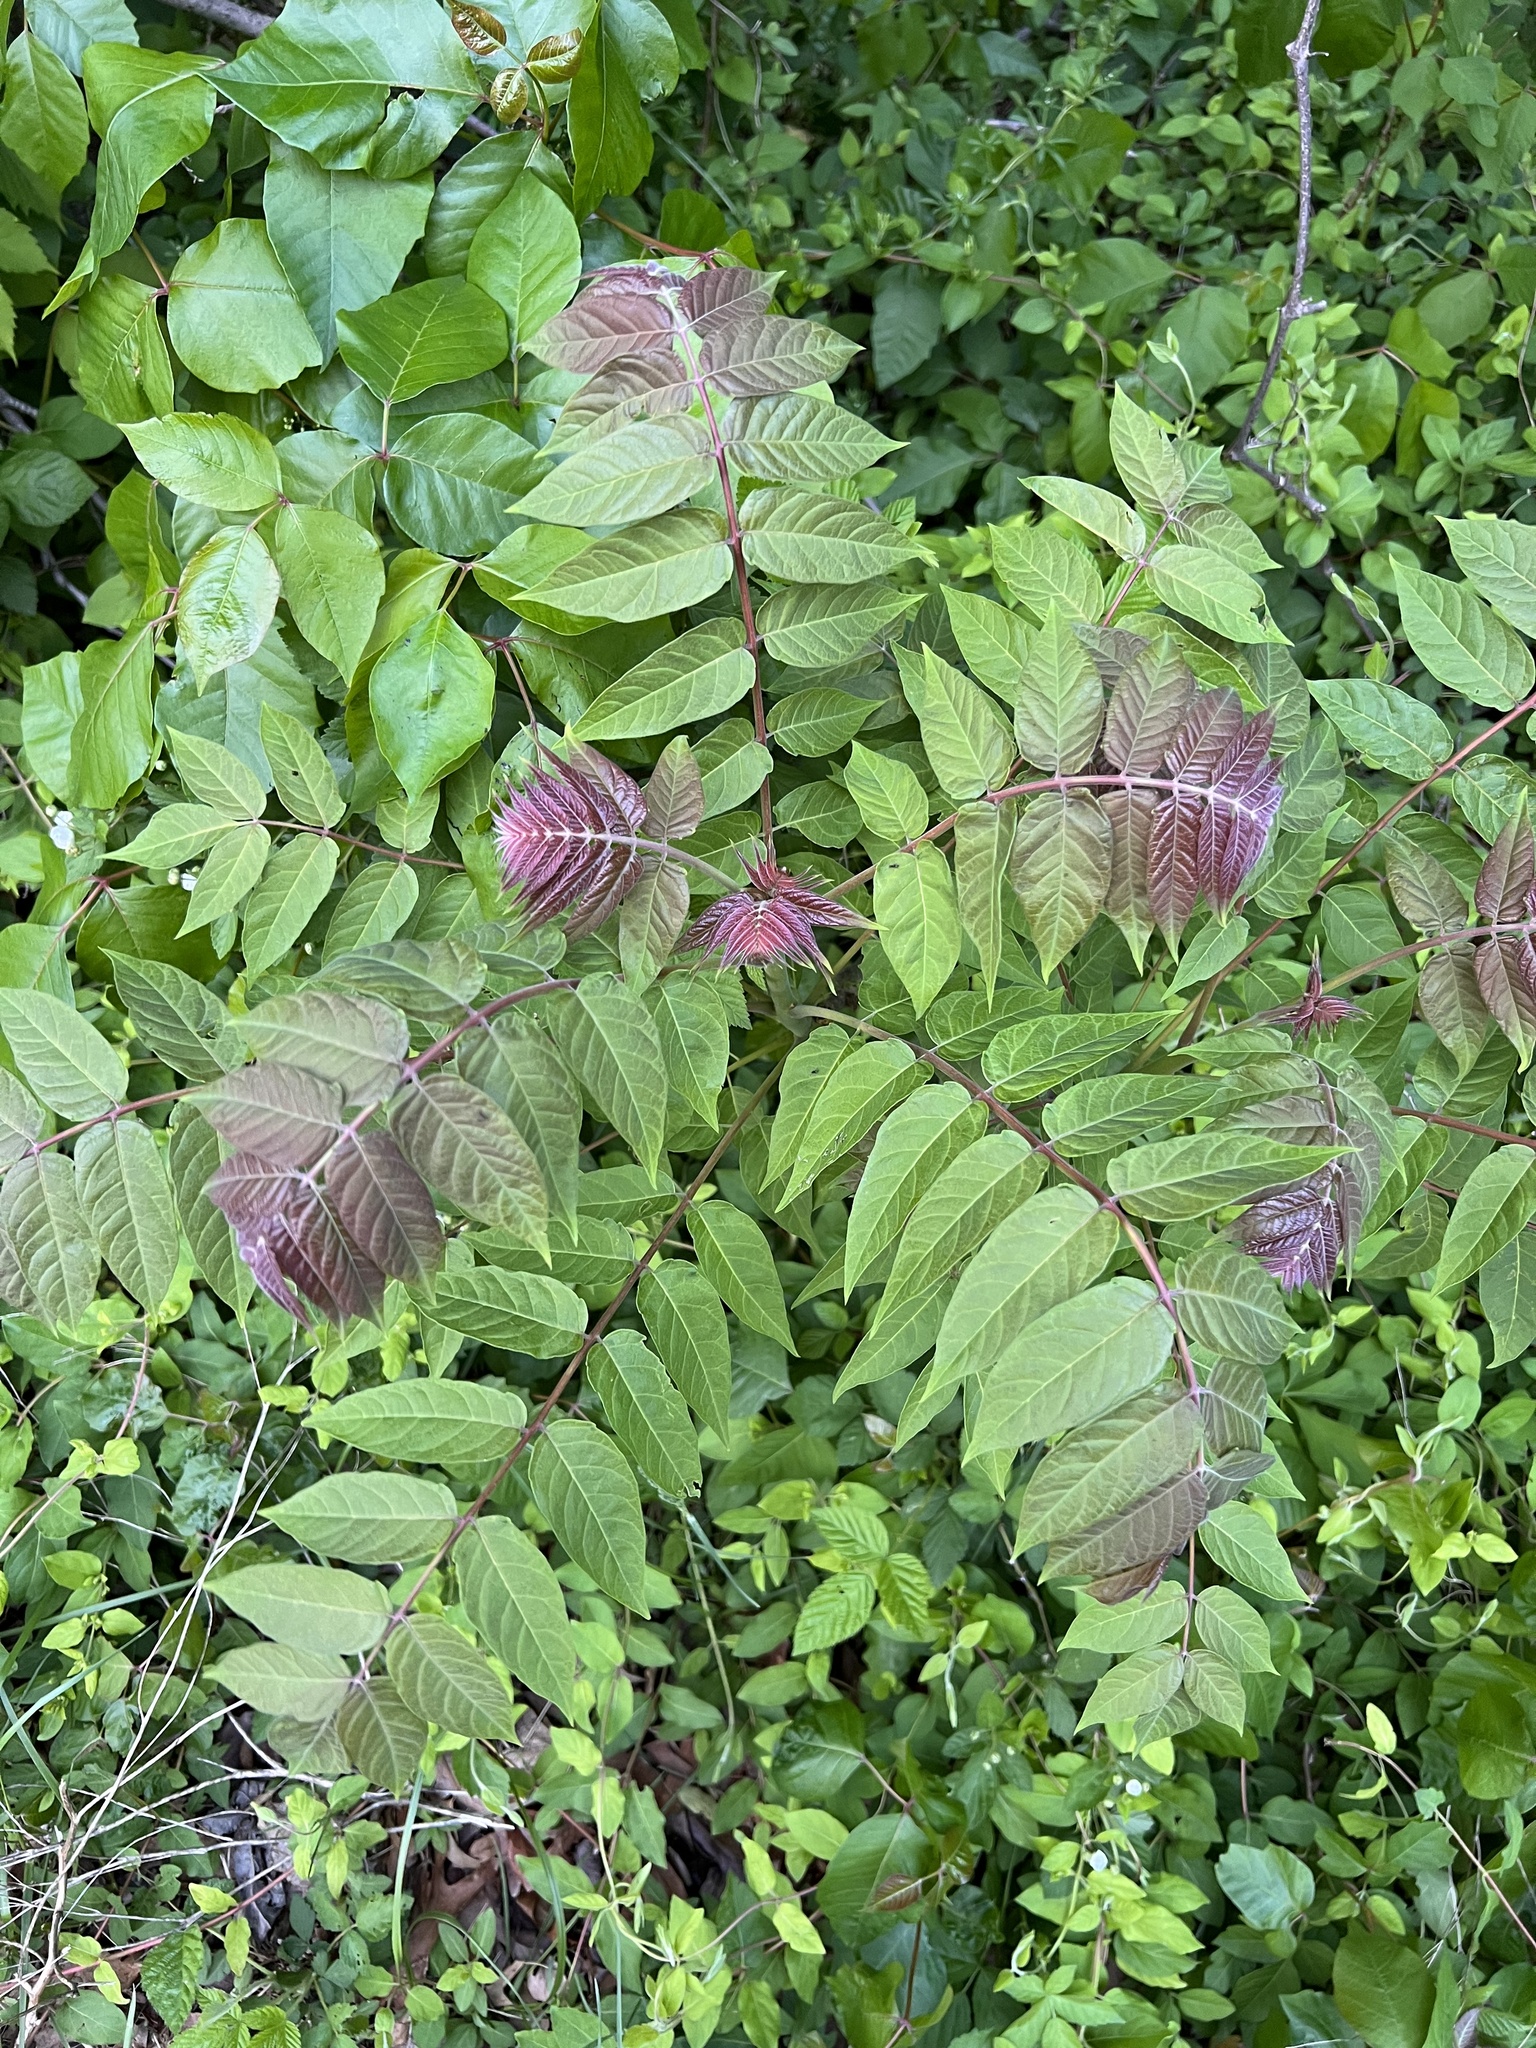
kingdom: Plantae
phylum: Tracheophyta
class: Magnoliopsida
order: Sapindales
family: Simaroubaceae
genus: Ailanthus
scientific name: Ailanthus altissima
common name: Tree-of-heaven
